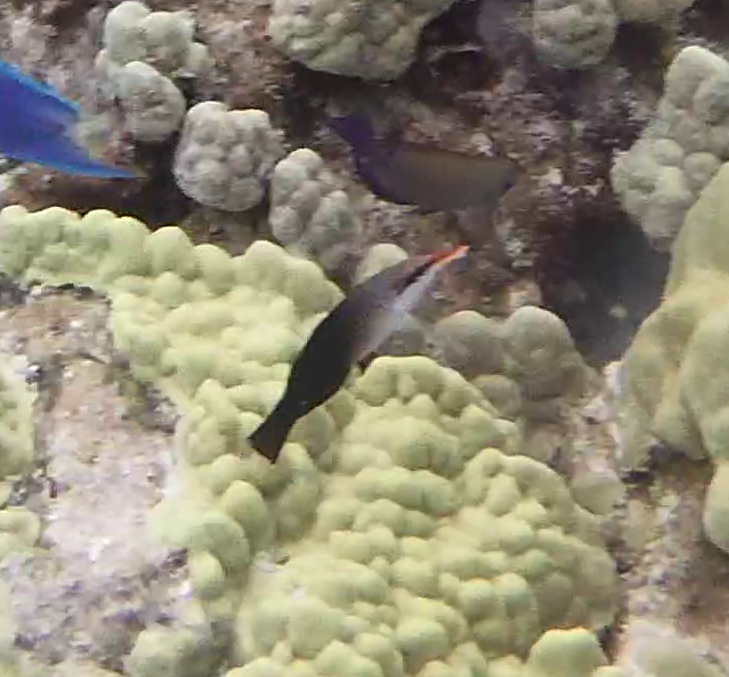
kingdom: Animalia
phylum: Chordata
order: Perciformes
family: Labridae
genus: Gomphosus
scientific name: Gomphosus varius
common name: Bird wrasse
